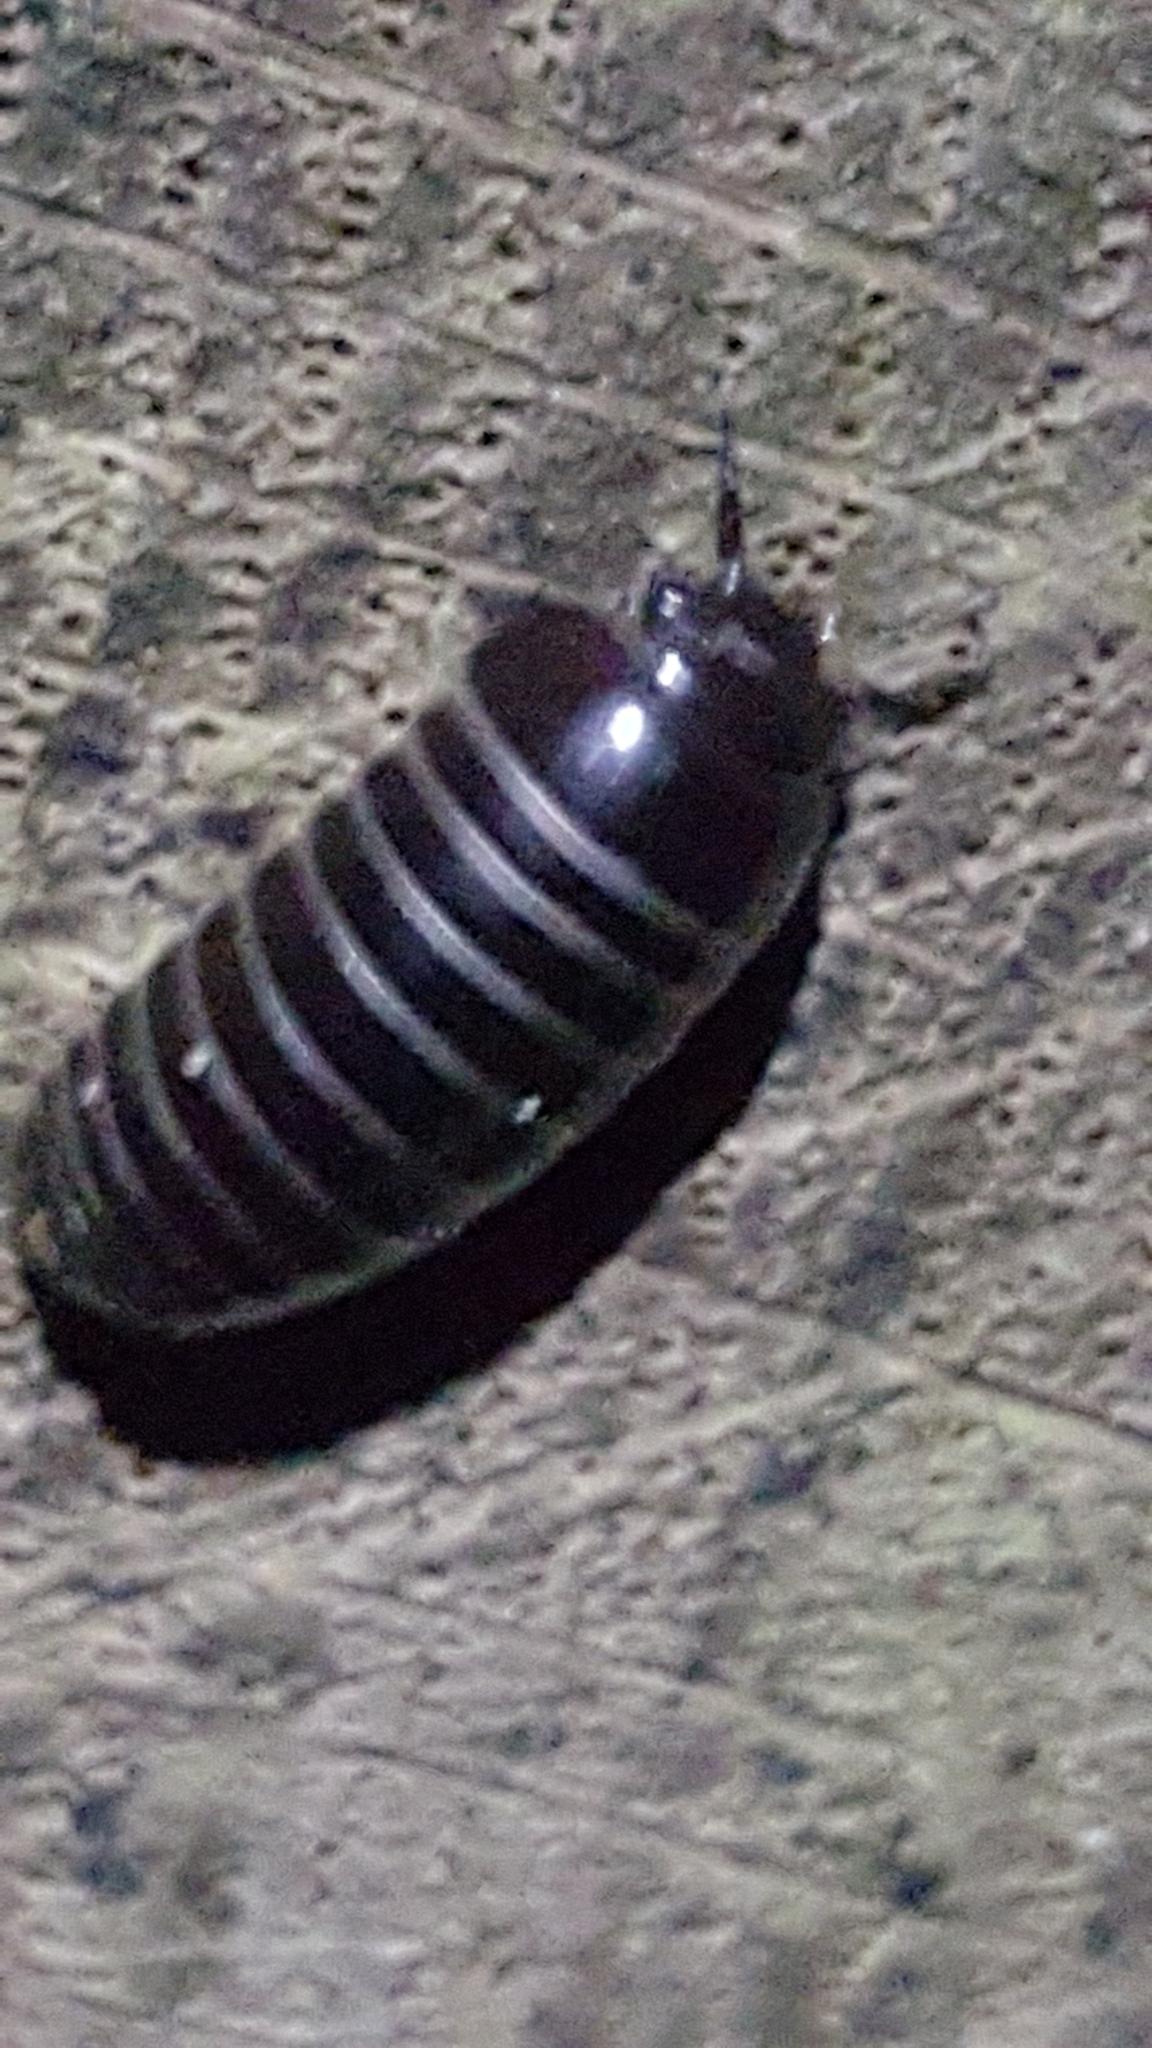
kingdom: Animalia
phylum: Arthropoda
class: Diplopoda
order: Glomerida
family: Glomeridae
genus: Glomeris
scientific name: Glomeris marginata
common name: Bordered pill millipede
